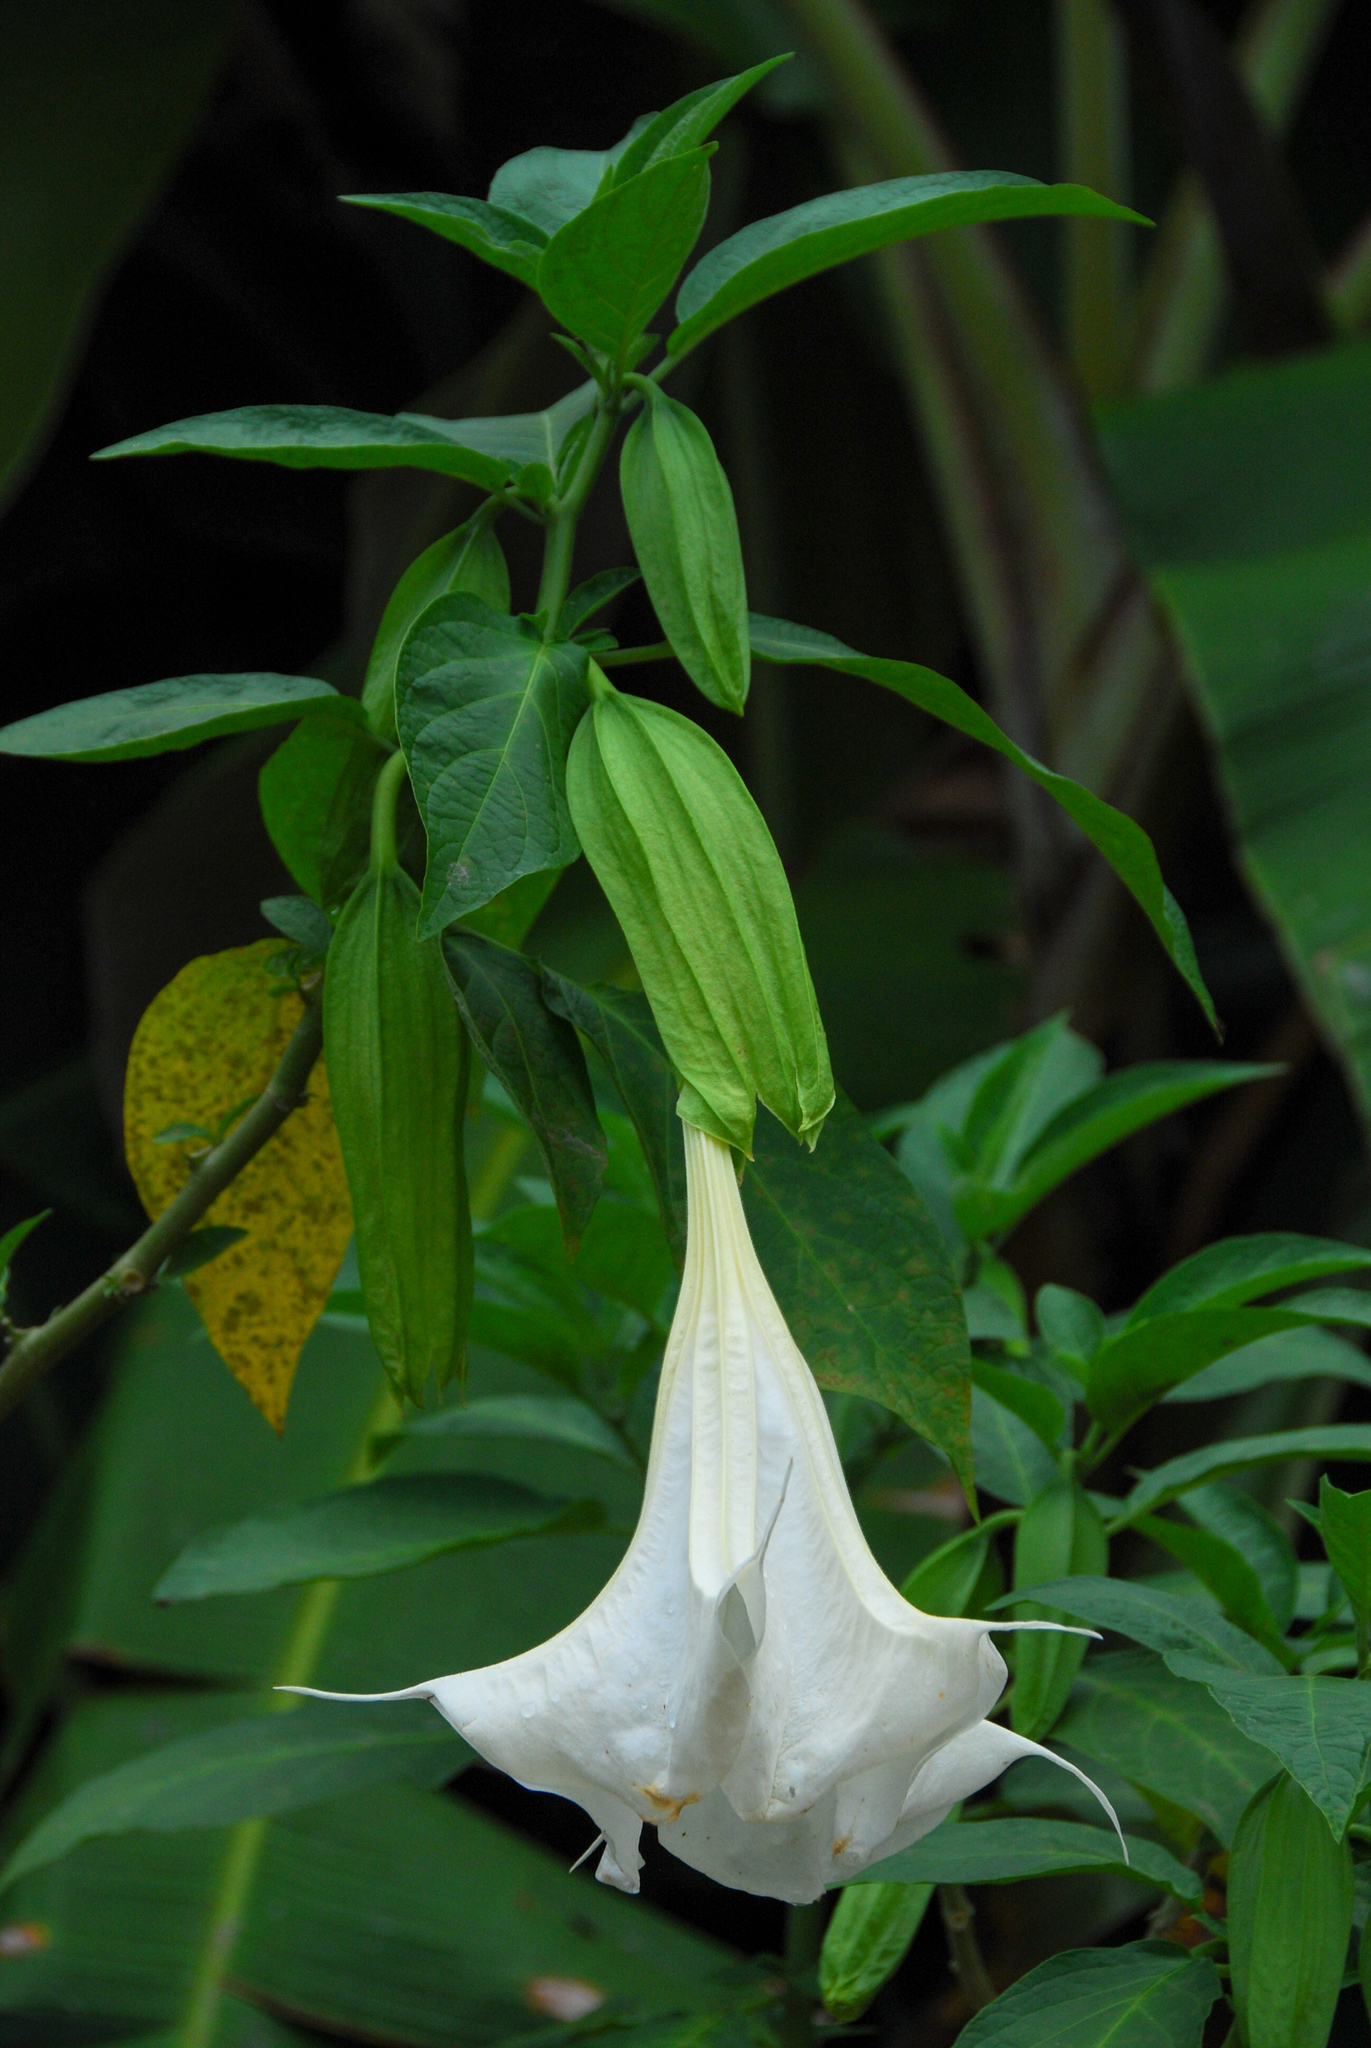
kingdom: Plantae
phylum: Tracheophyta
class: Magnoliopsida
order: Solanales
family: Solanaceae
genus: Brugmansia
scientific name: Brugmansia suaveolens
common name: Angel's tears
